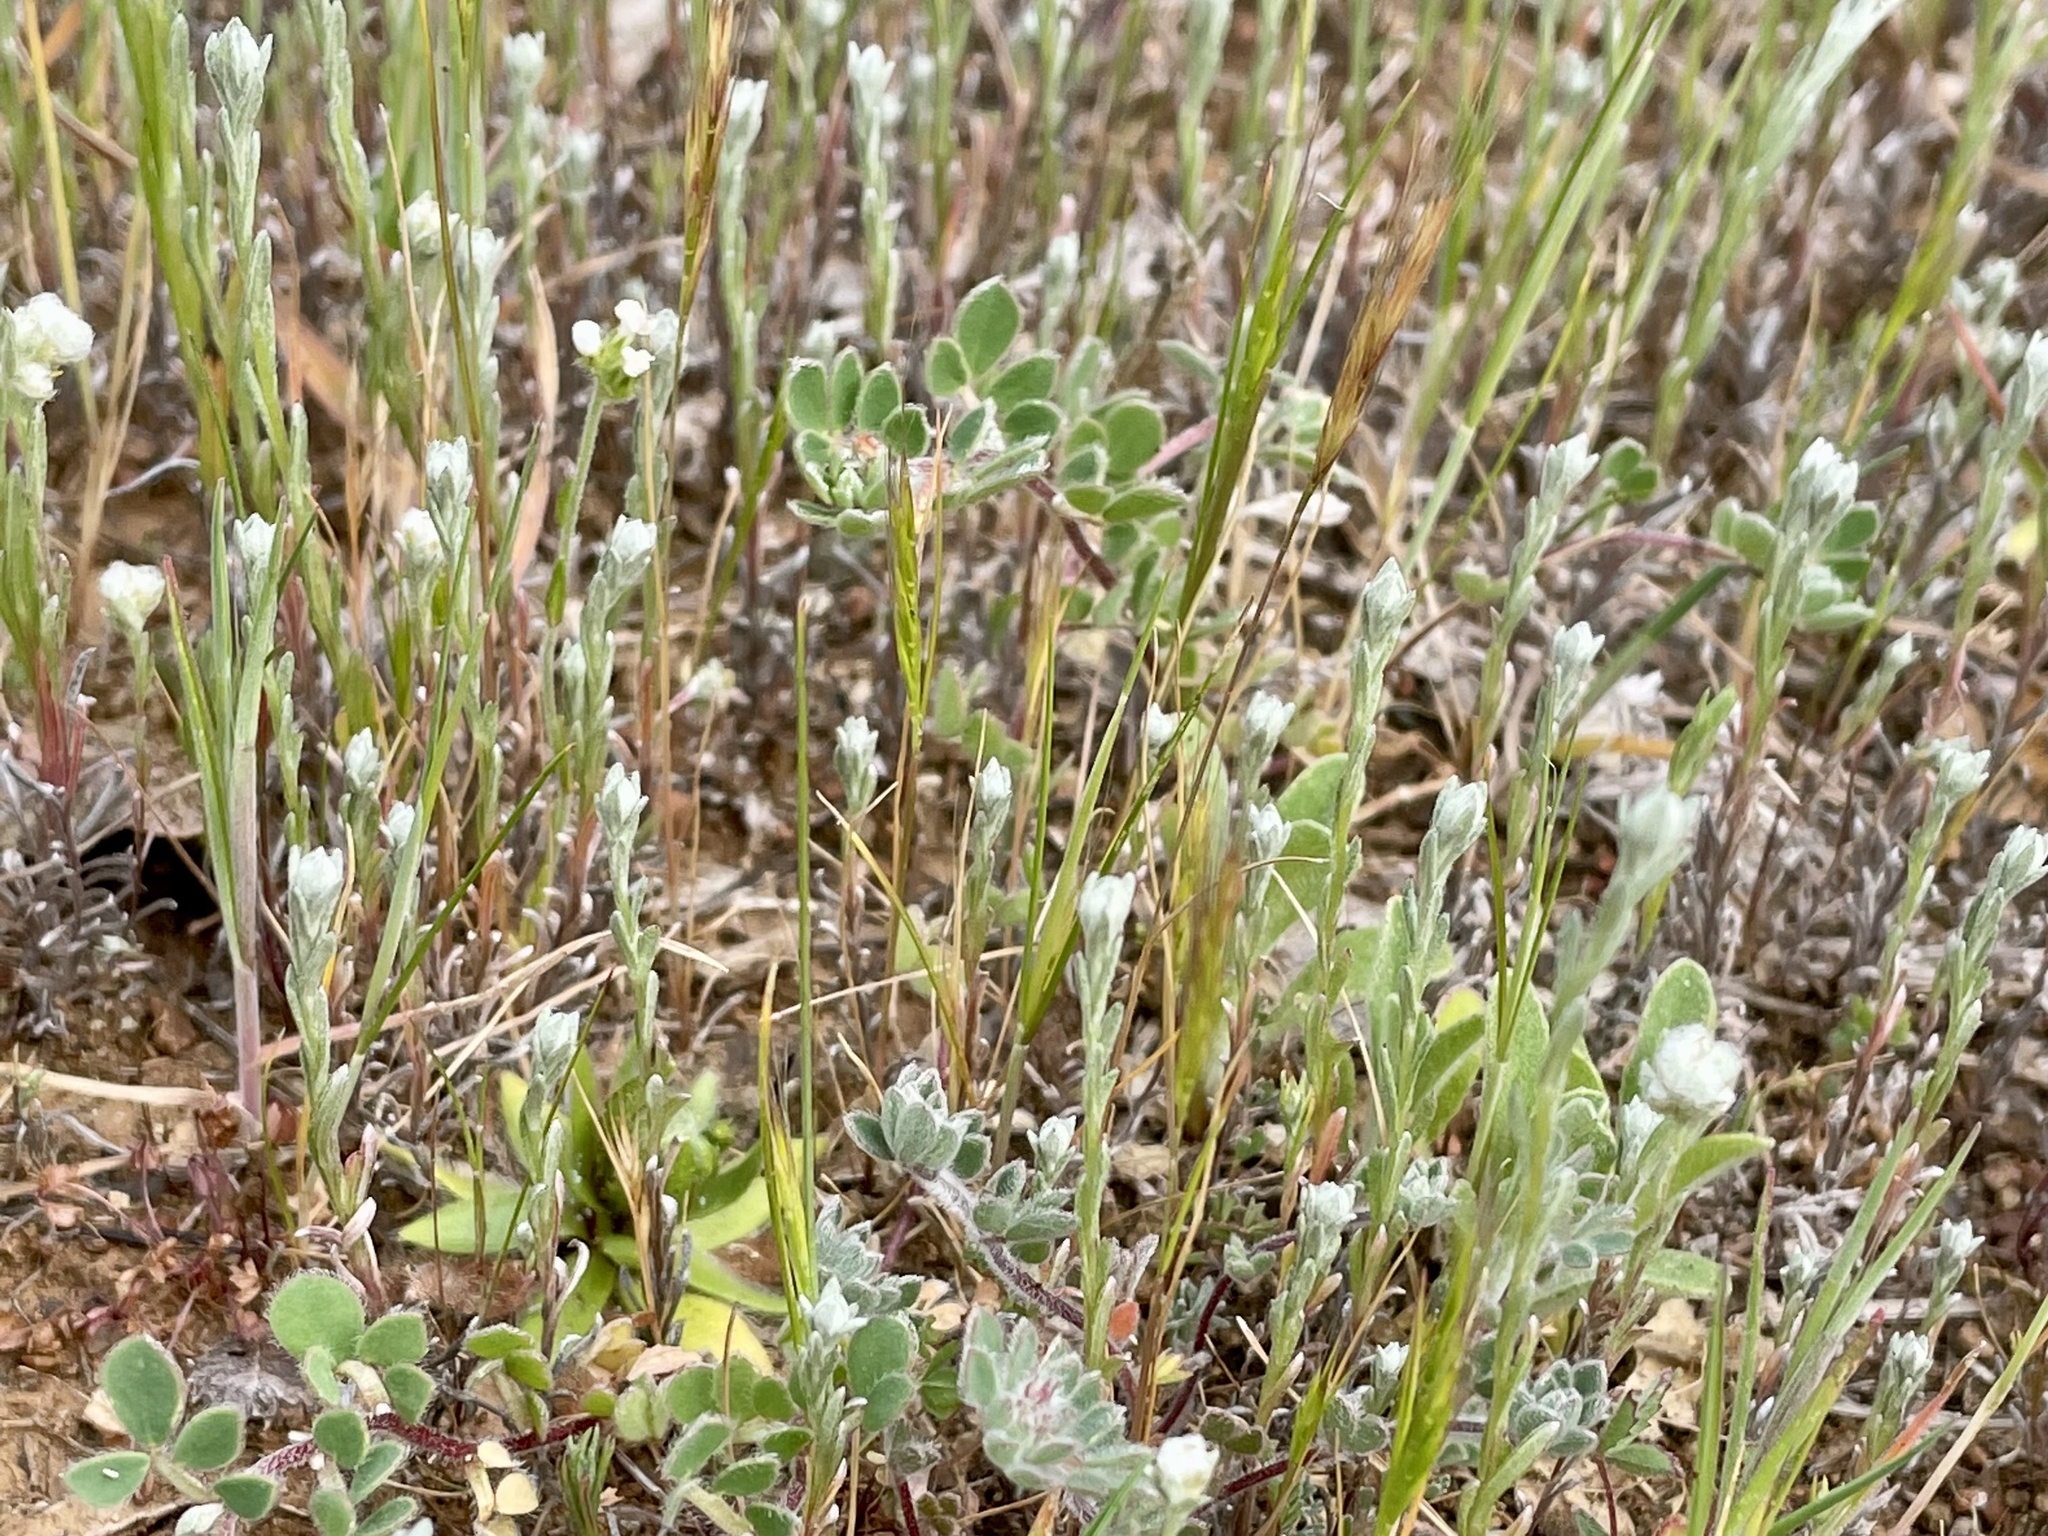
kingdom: Plantae
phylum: Tracheophyta
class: Magnoliopsida
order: Asterales
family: Asteraceae
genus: Bombycilaena
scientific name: Bombycilaena californica
